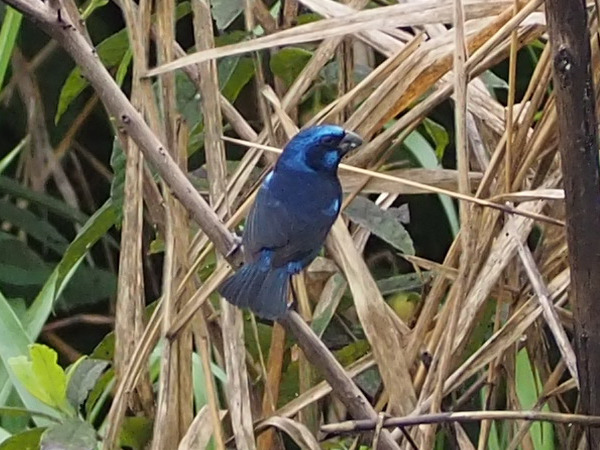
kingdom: Animalia
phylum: Chordata
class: Aves
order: Passeriformes
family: Cardinalidae
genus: Cyanocompsa
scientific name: Cyanocompsa parellina
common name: Blue bunting
